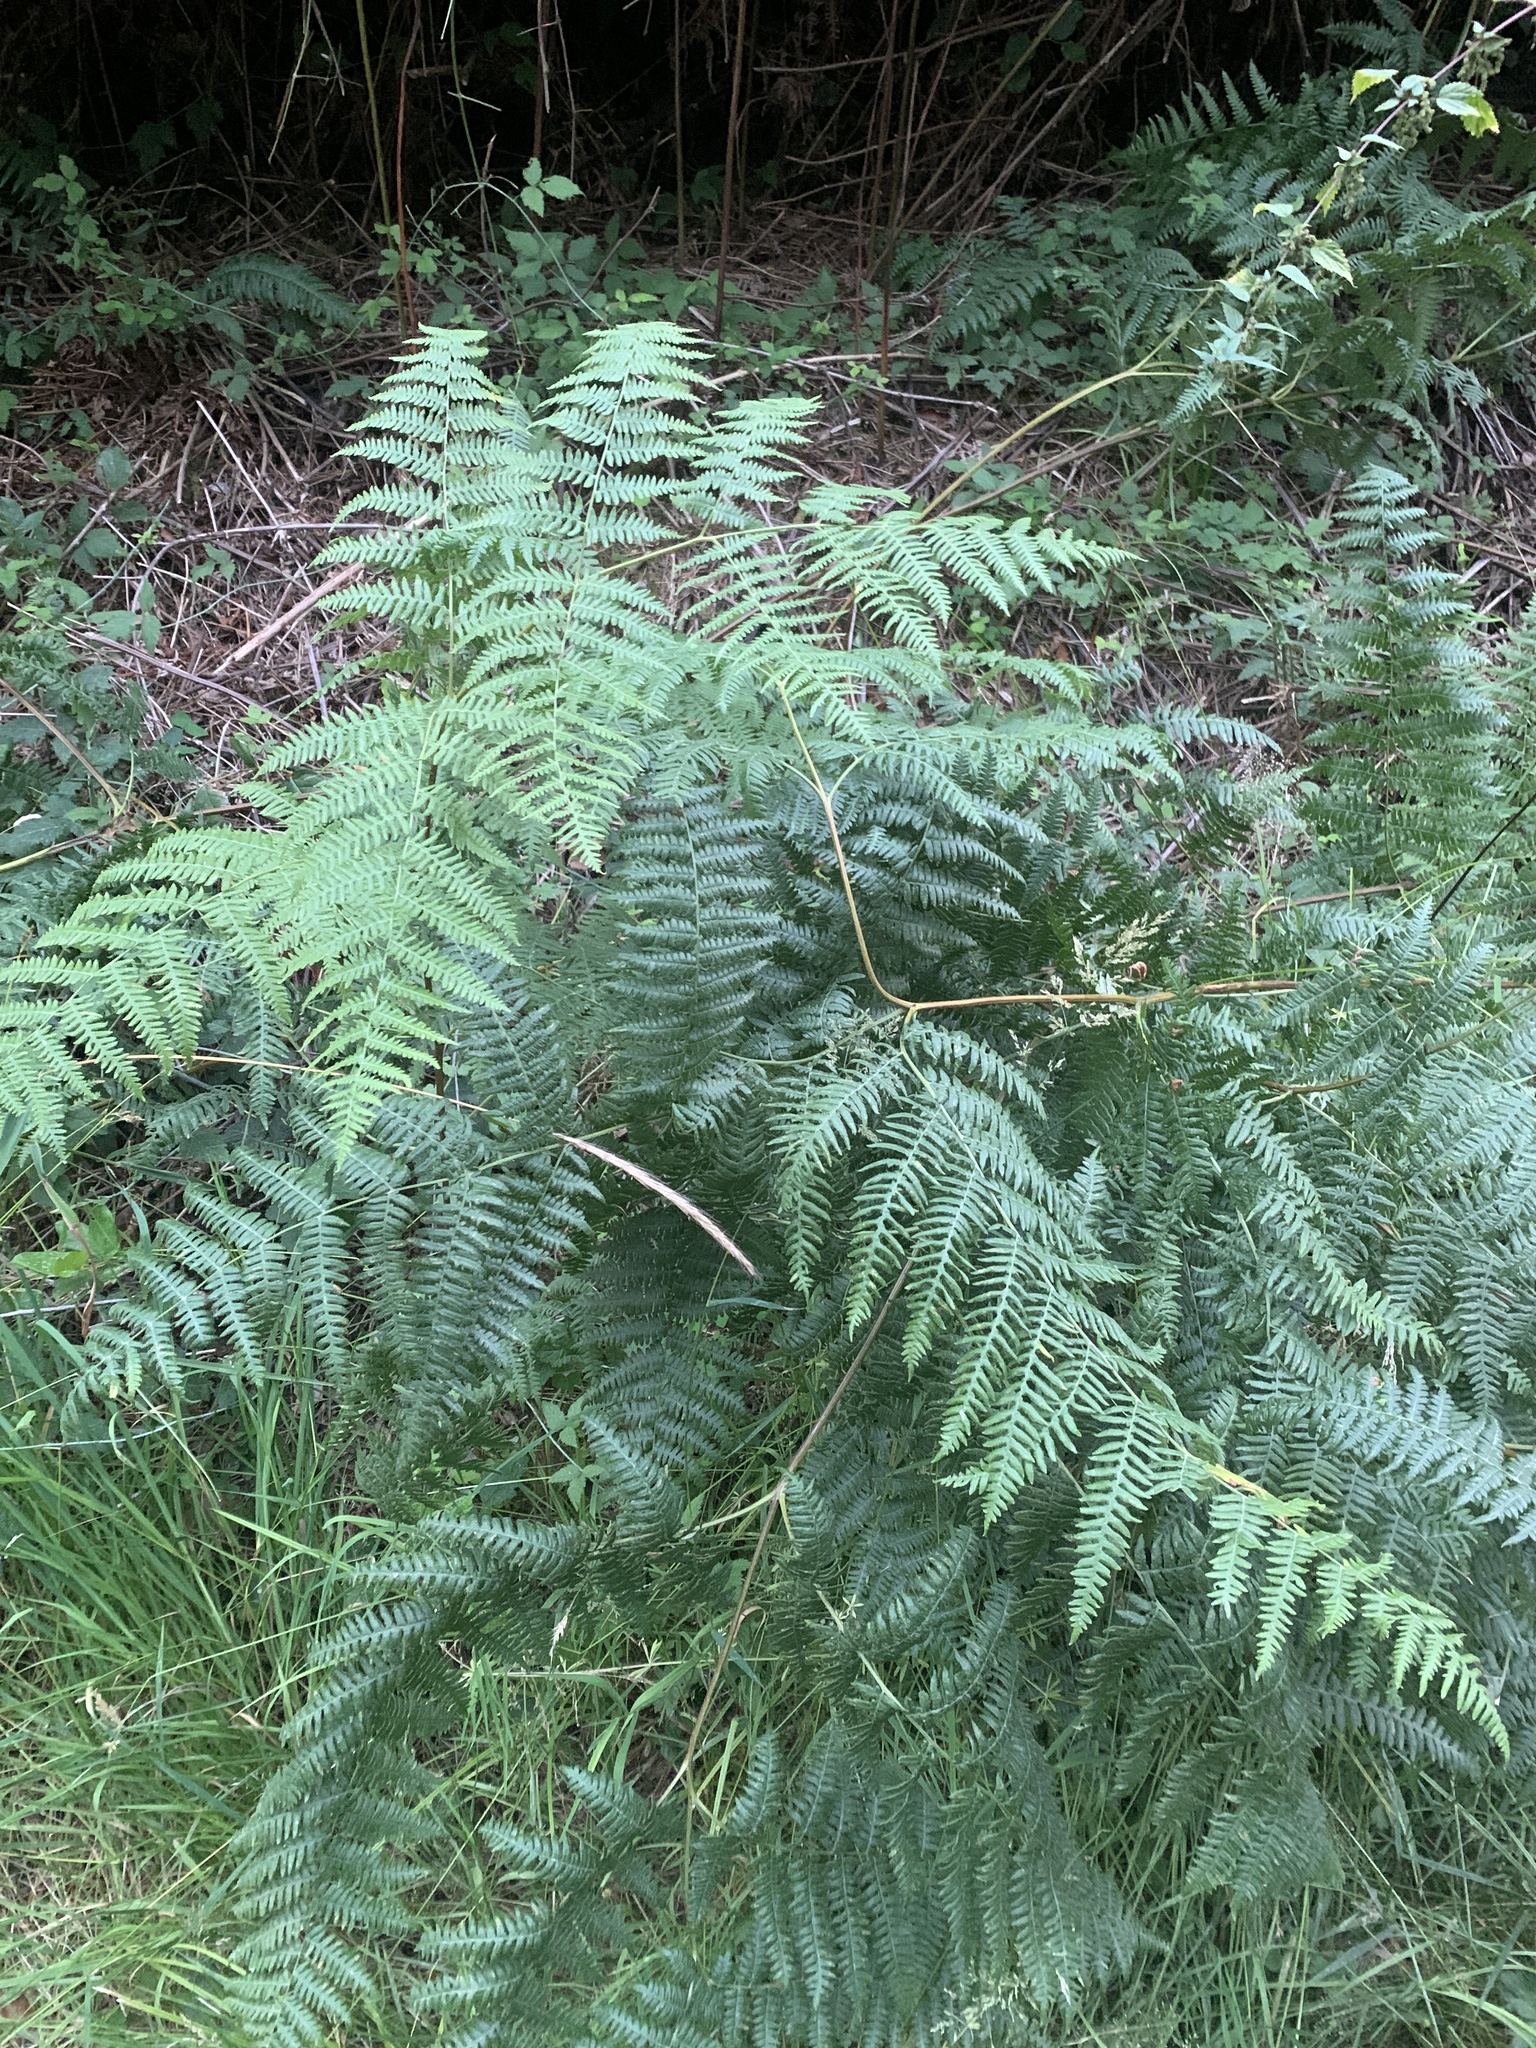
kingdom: Plantae
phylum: Tracheophyta
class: Polypodiopsida
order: Polypodiales
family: Dennstaedtiaceae
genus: Pteridium
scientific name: Pteridium aquilinum
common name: Bracken
